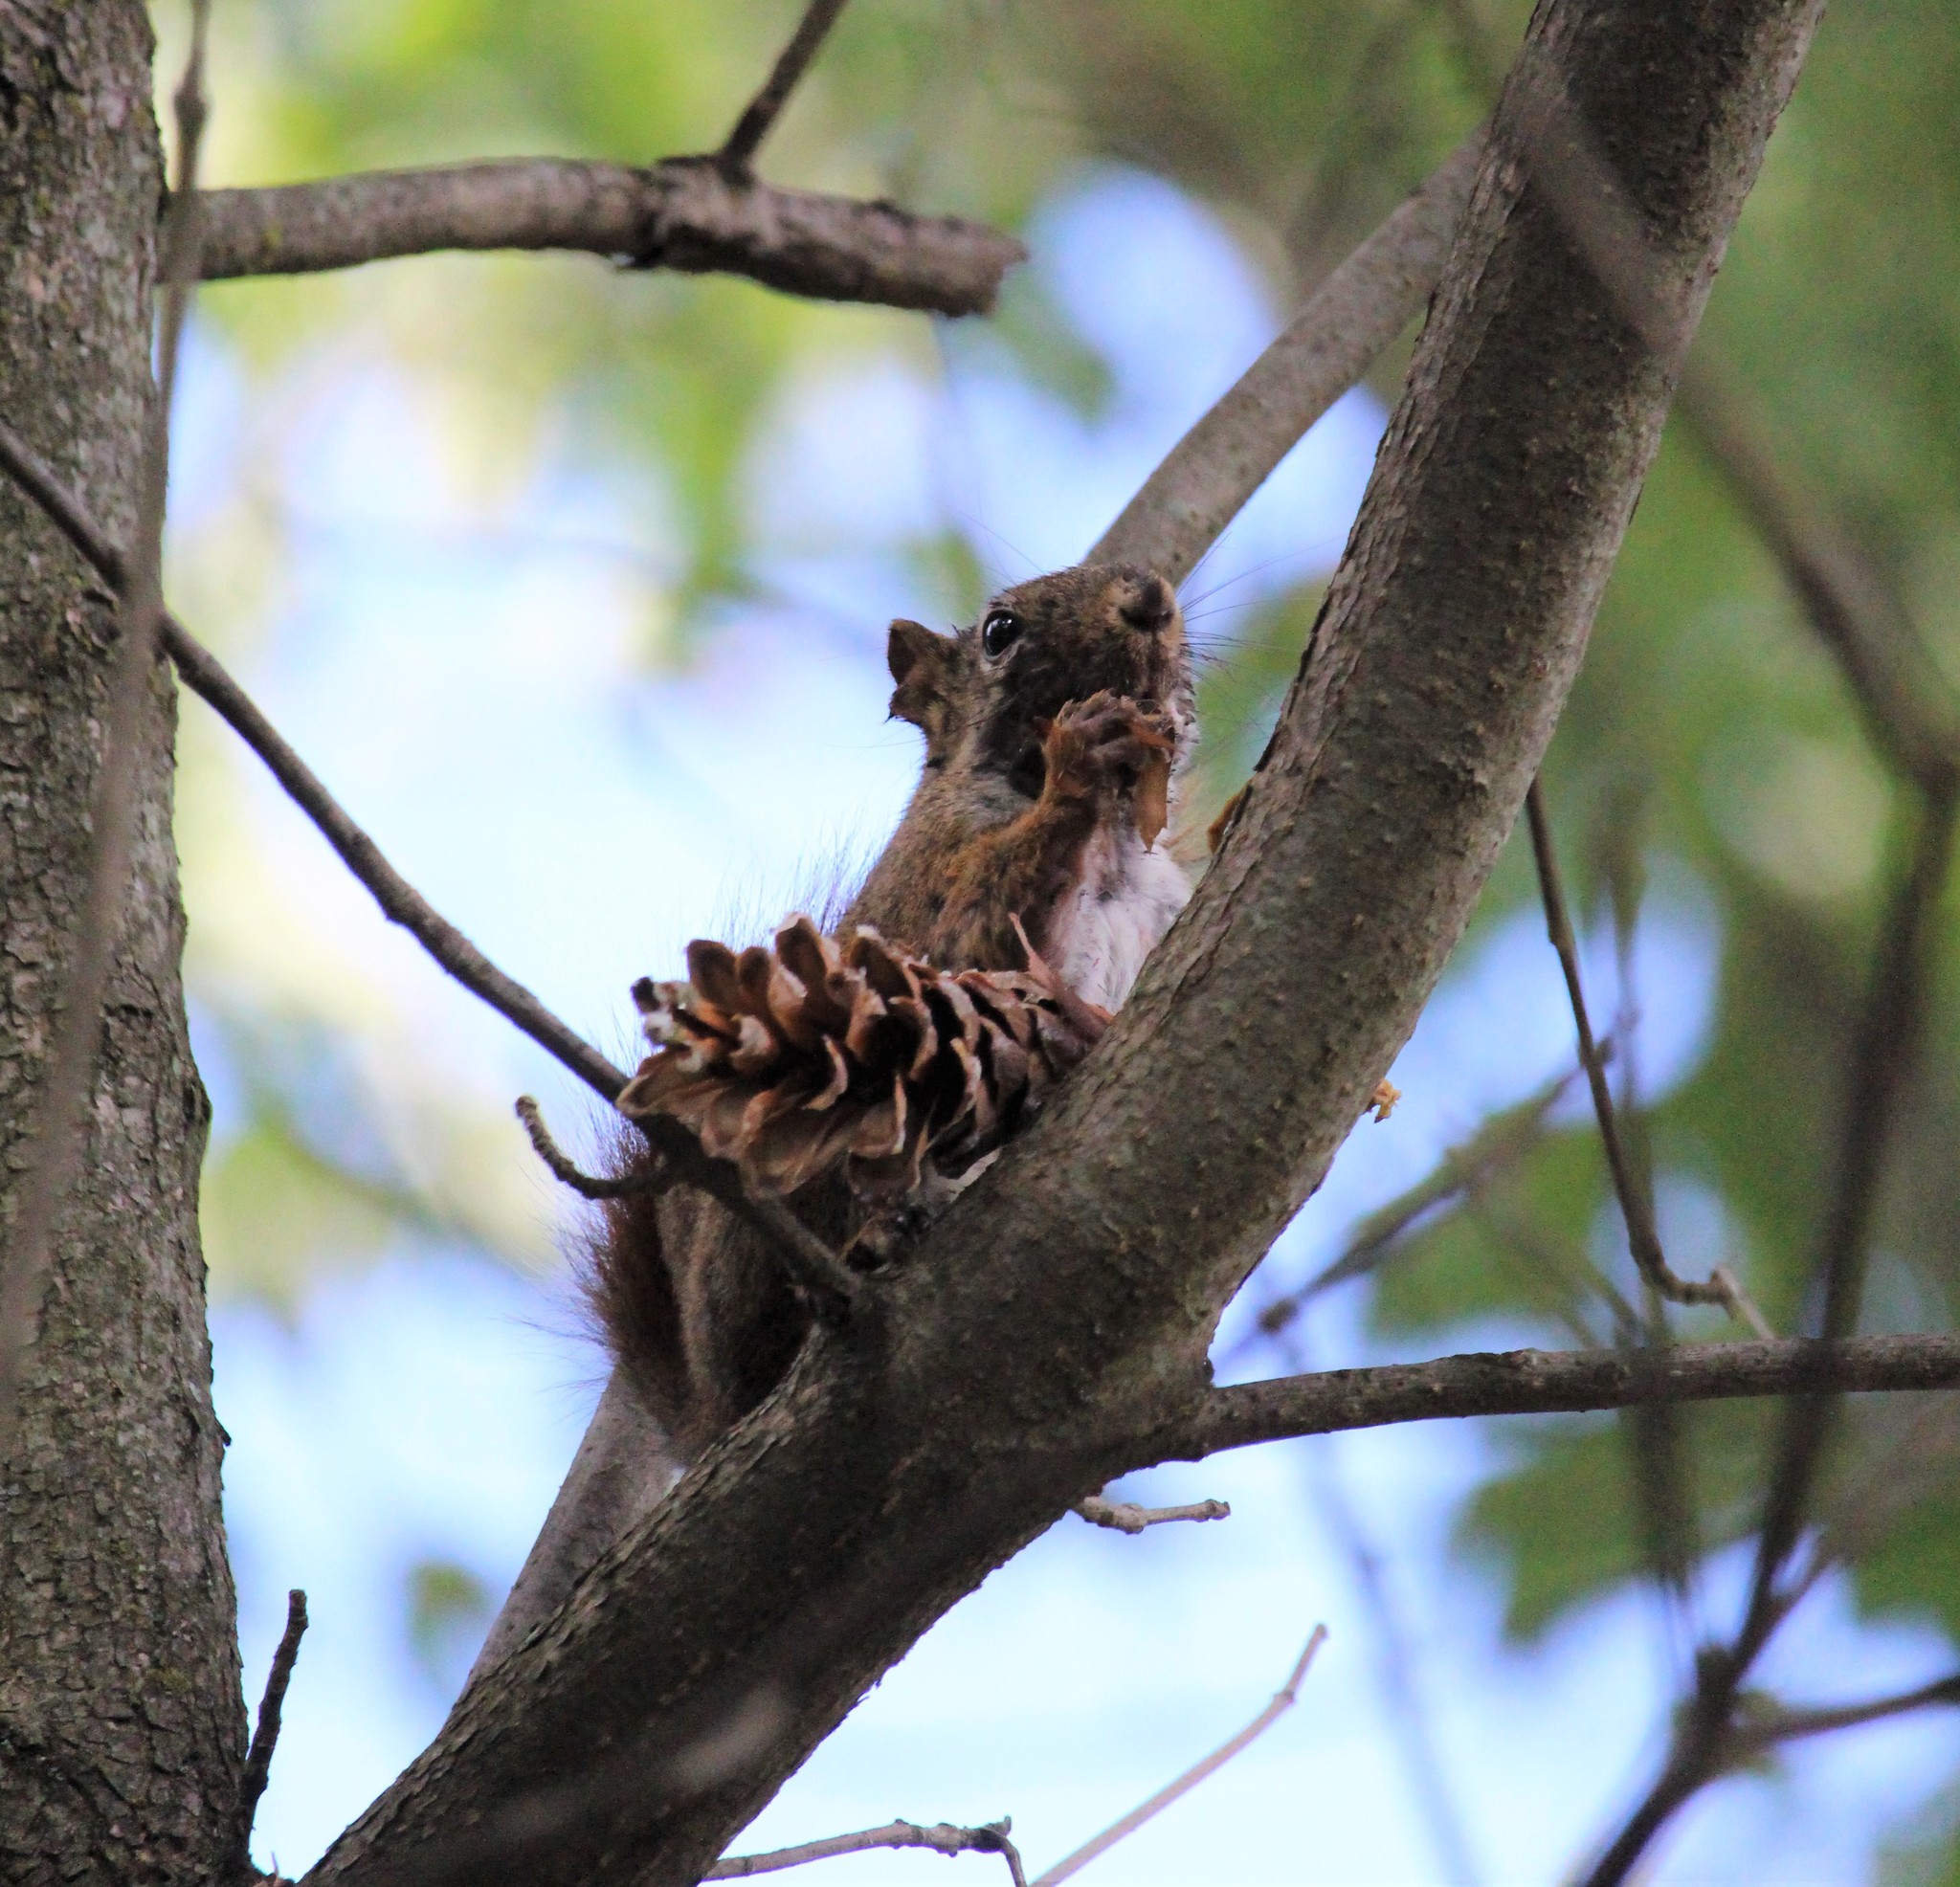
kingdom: Animalia
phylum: Chordata
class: Mammalia
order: Rodentia
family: Sciuridae
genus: Tamiasciurus
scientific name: Tamiasciurus hudsonicus
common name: Red squirrel
